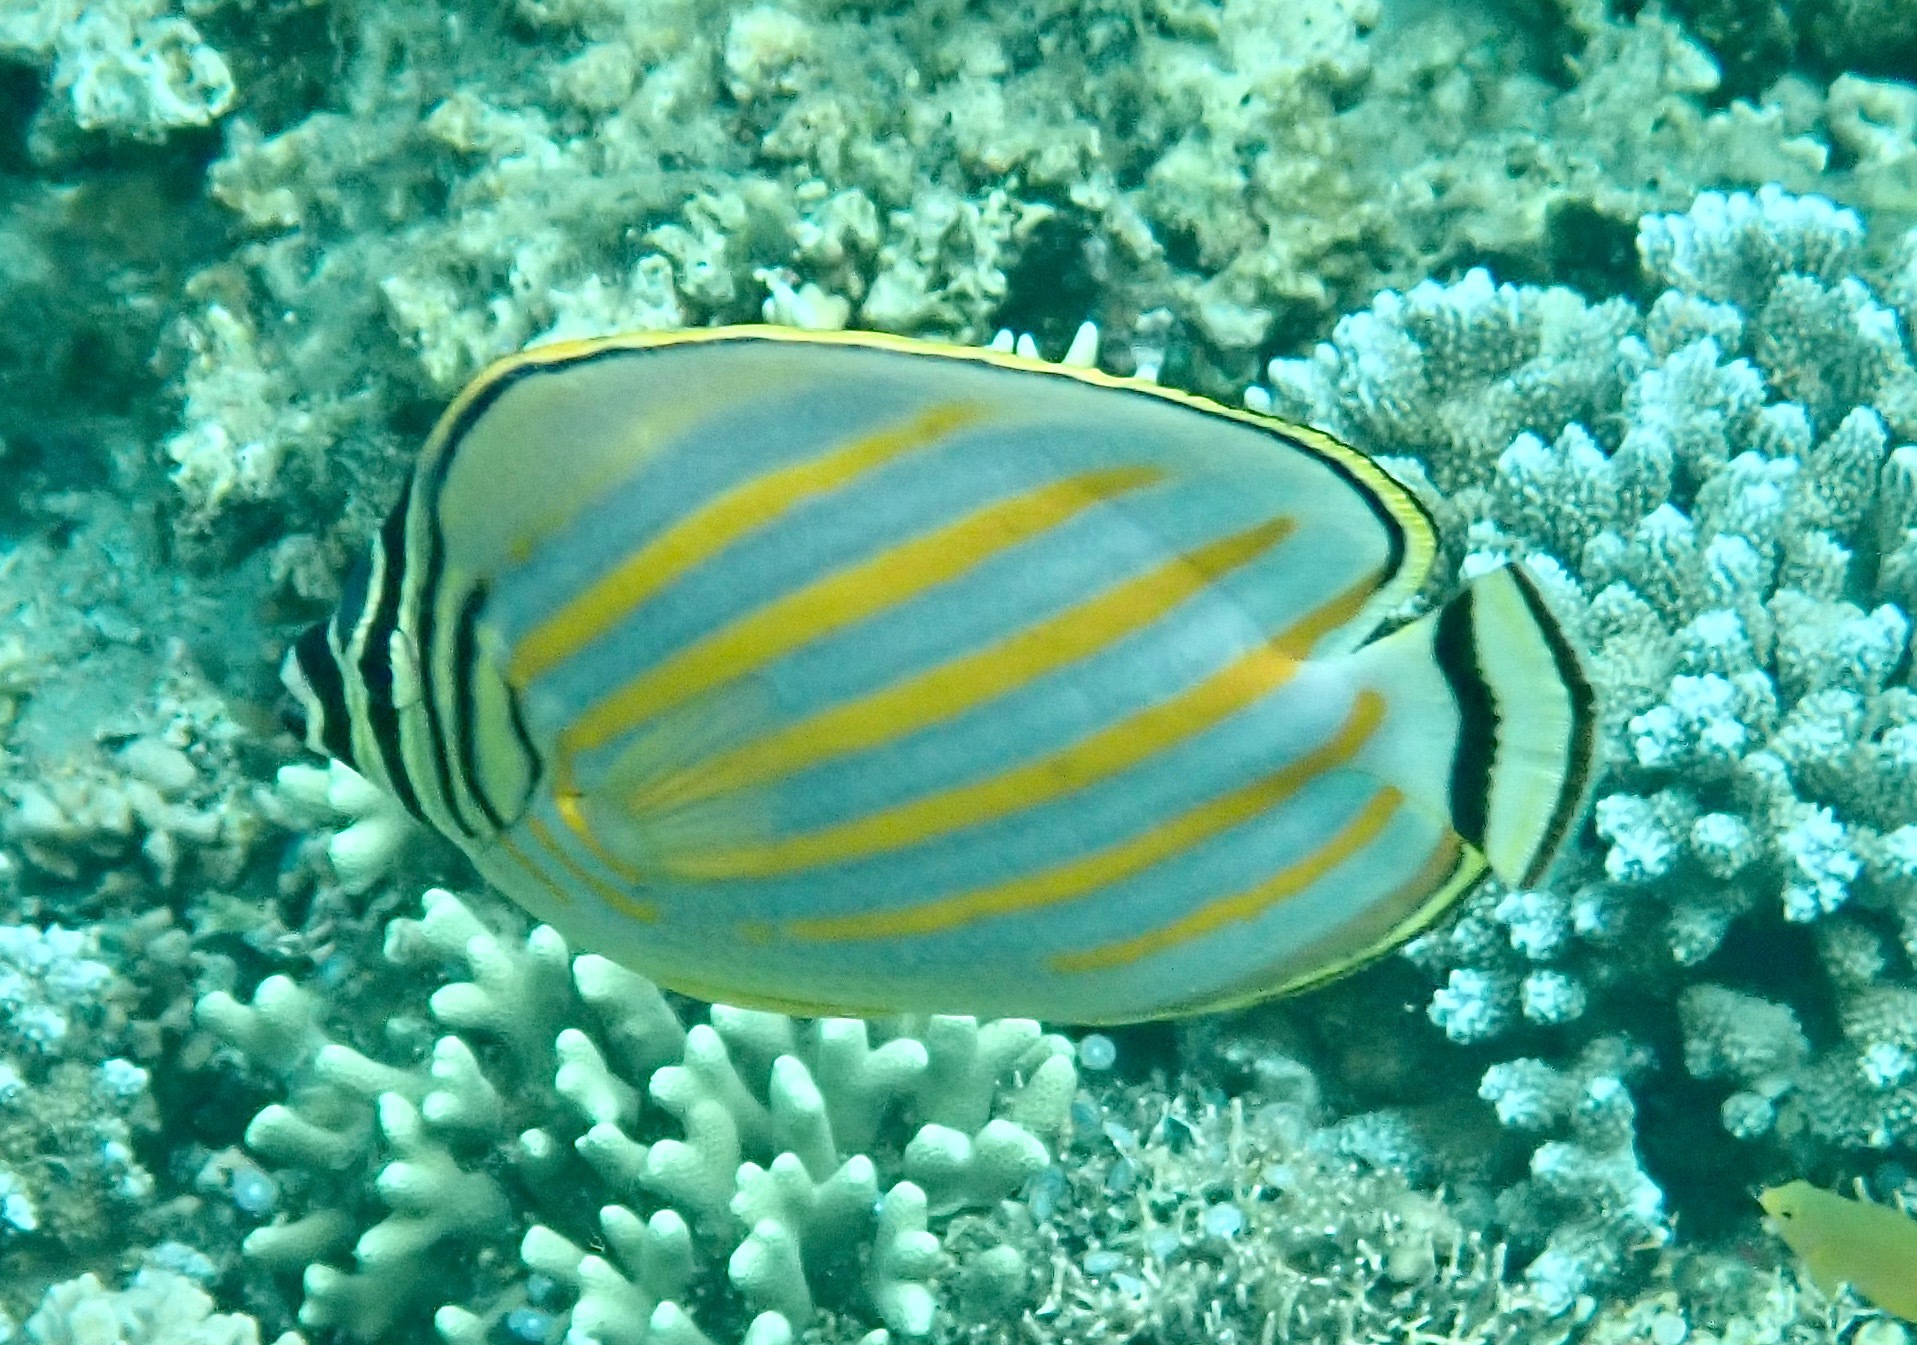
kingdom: Animalia
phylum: Chordata
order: Perciformes
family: Chaetodontidae
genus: Chaetodon
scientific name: Chaetodon ornatissimus
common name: Ornate butterflyfish
